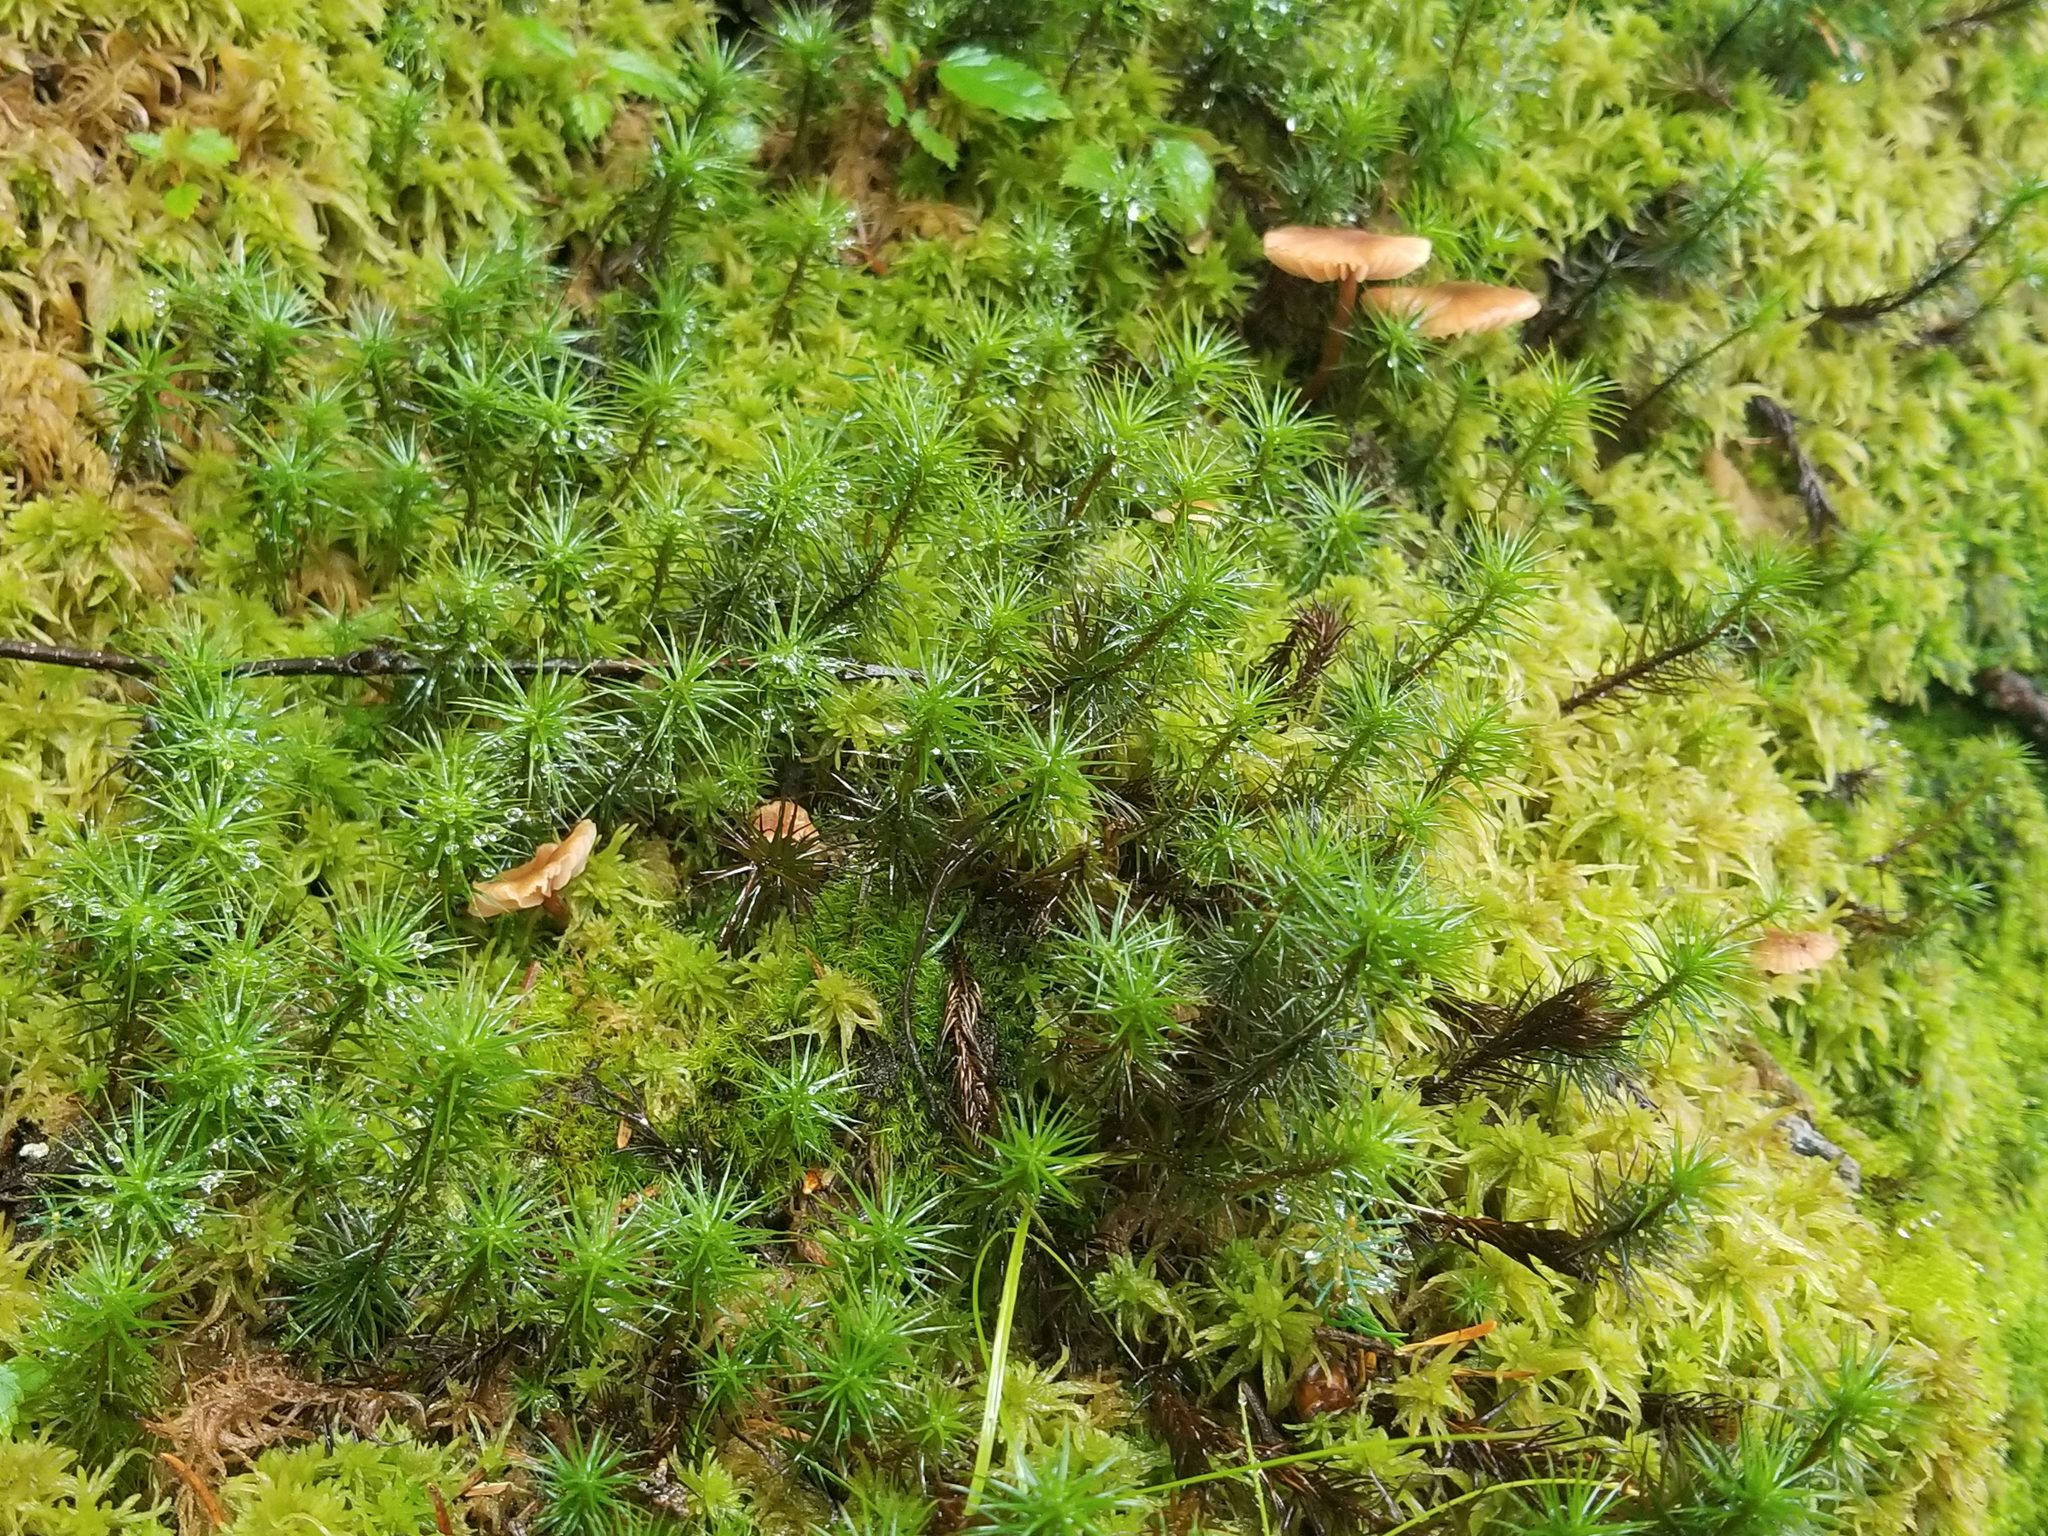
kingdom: Plantae
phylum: Bryophyta
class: Polytrichopsida
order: Polytrichales
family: Polytrichaceae
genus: Polytrichum
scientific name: Polytrichum commune
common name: Common haircap
